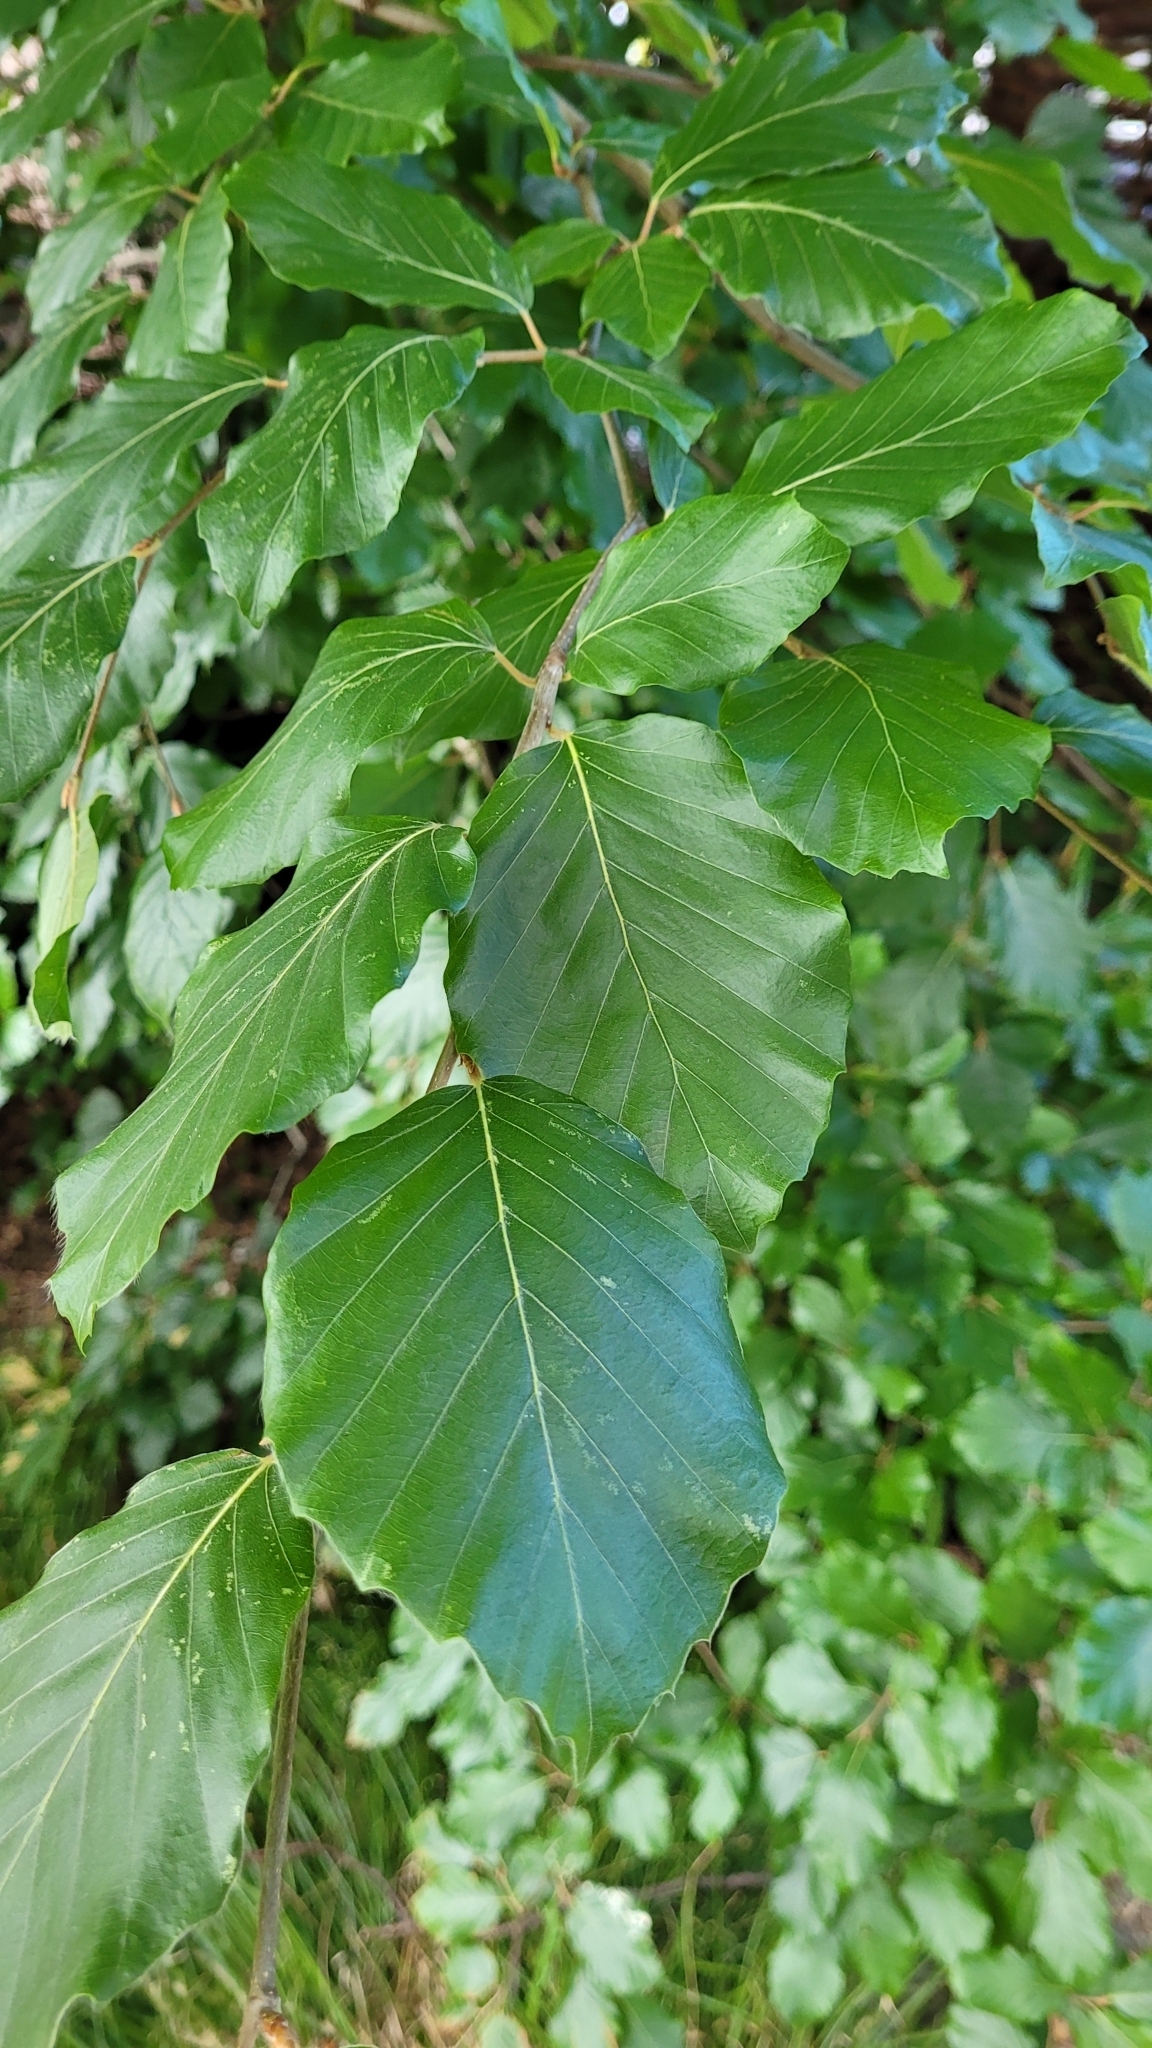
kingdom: Plantae
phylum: Tracheophyta
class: Magnoliopsida
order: Fagales
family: Fagaceae
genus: Fagus
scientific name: Fagus sylvatica
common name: Beech
